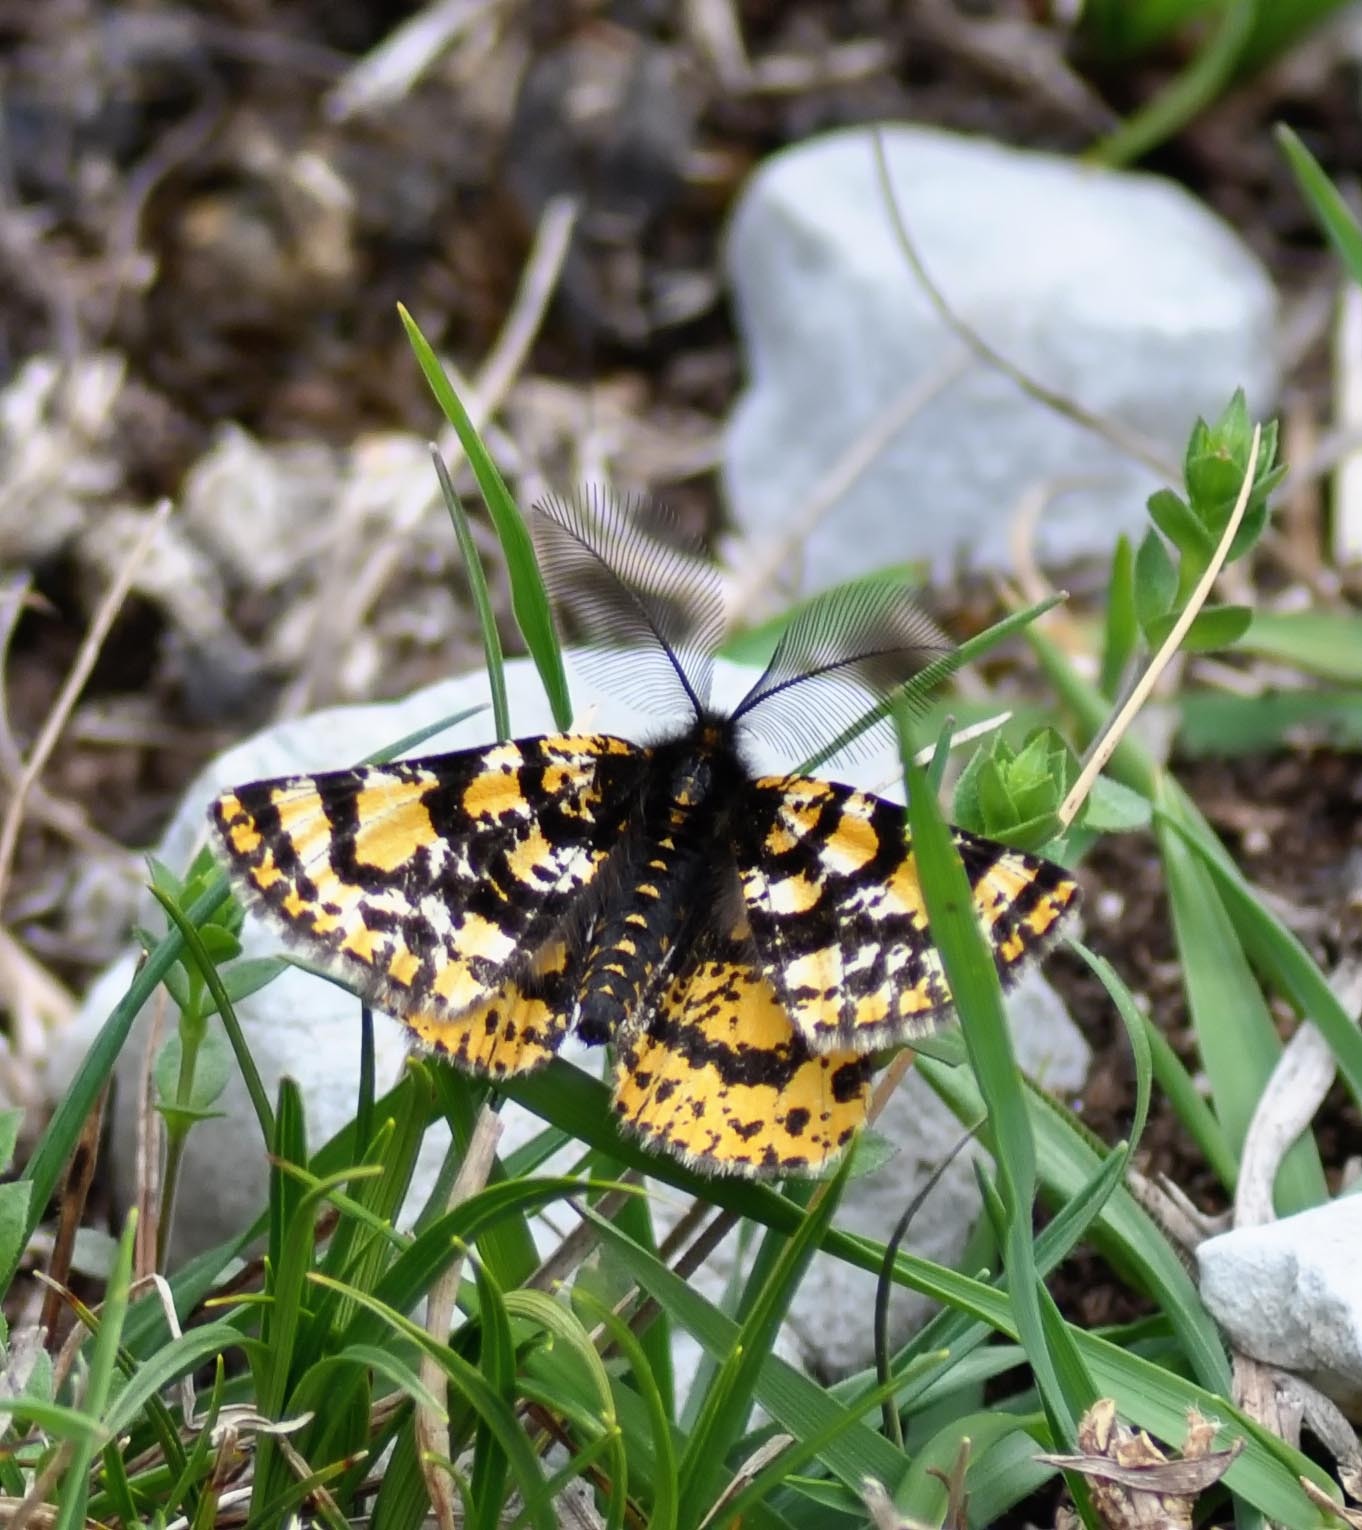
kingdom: Animalia
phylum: Arthropoda
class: Insecta
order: Lepidoptera
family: Geometridae
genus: Eurranthis
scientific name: Eurranthis plummistaria
